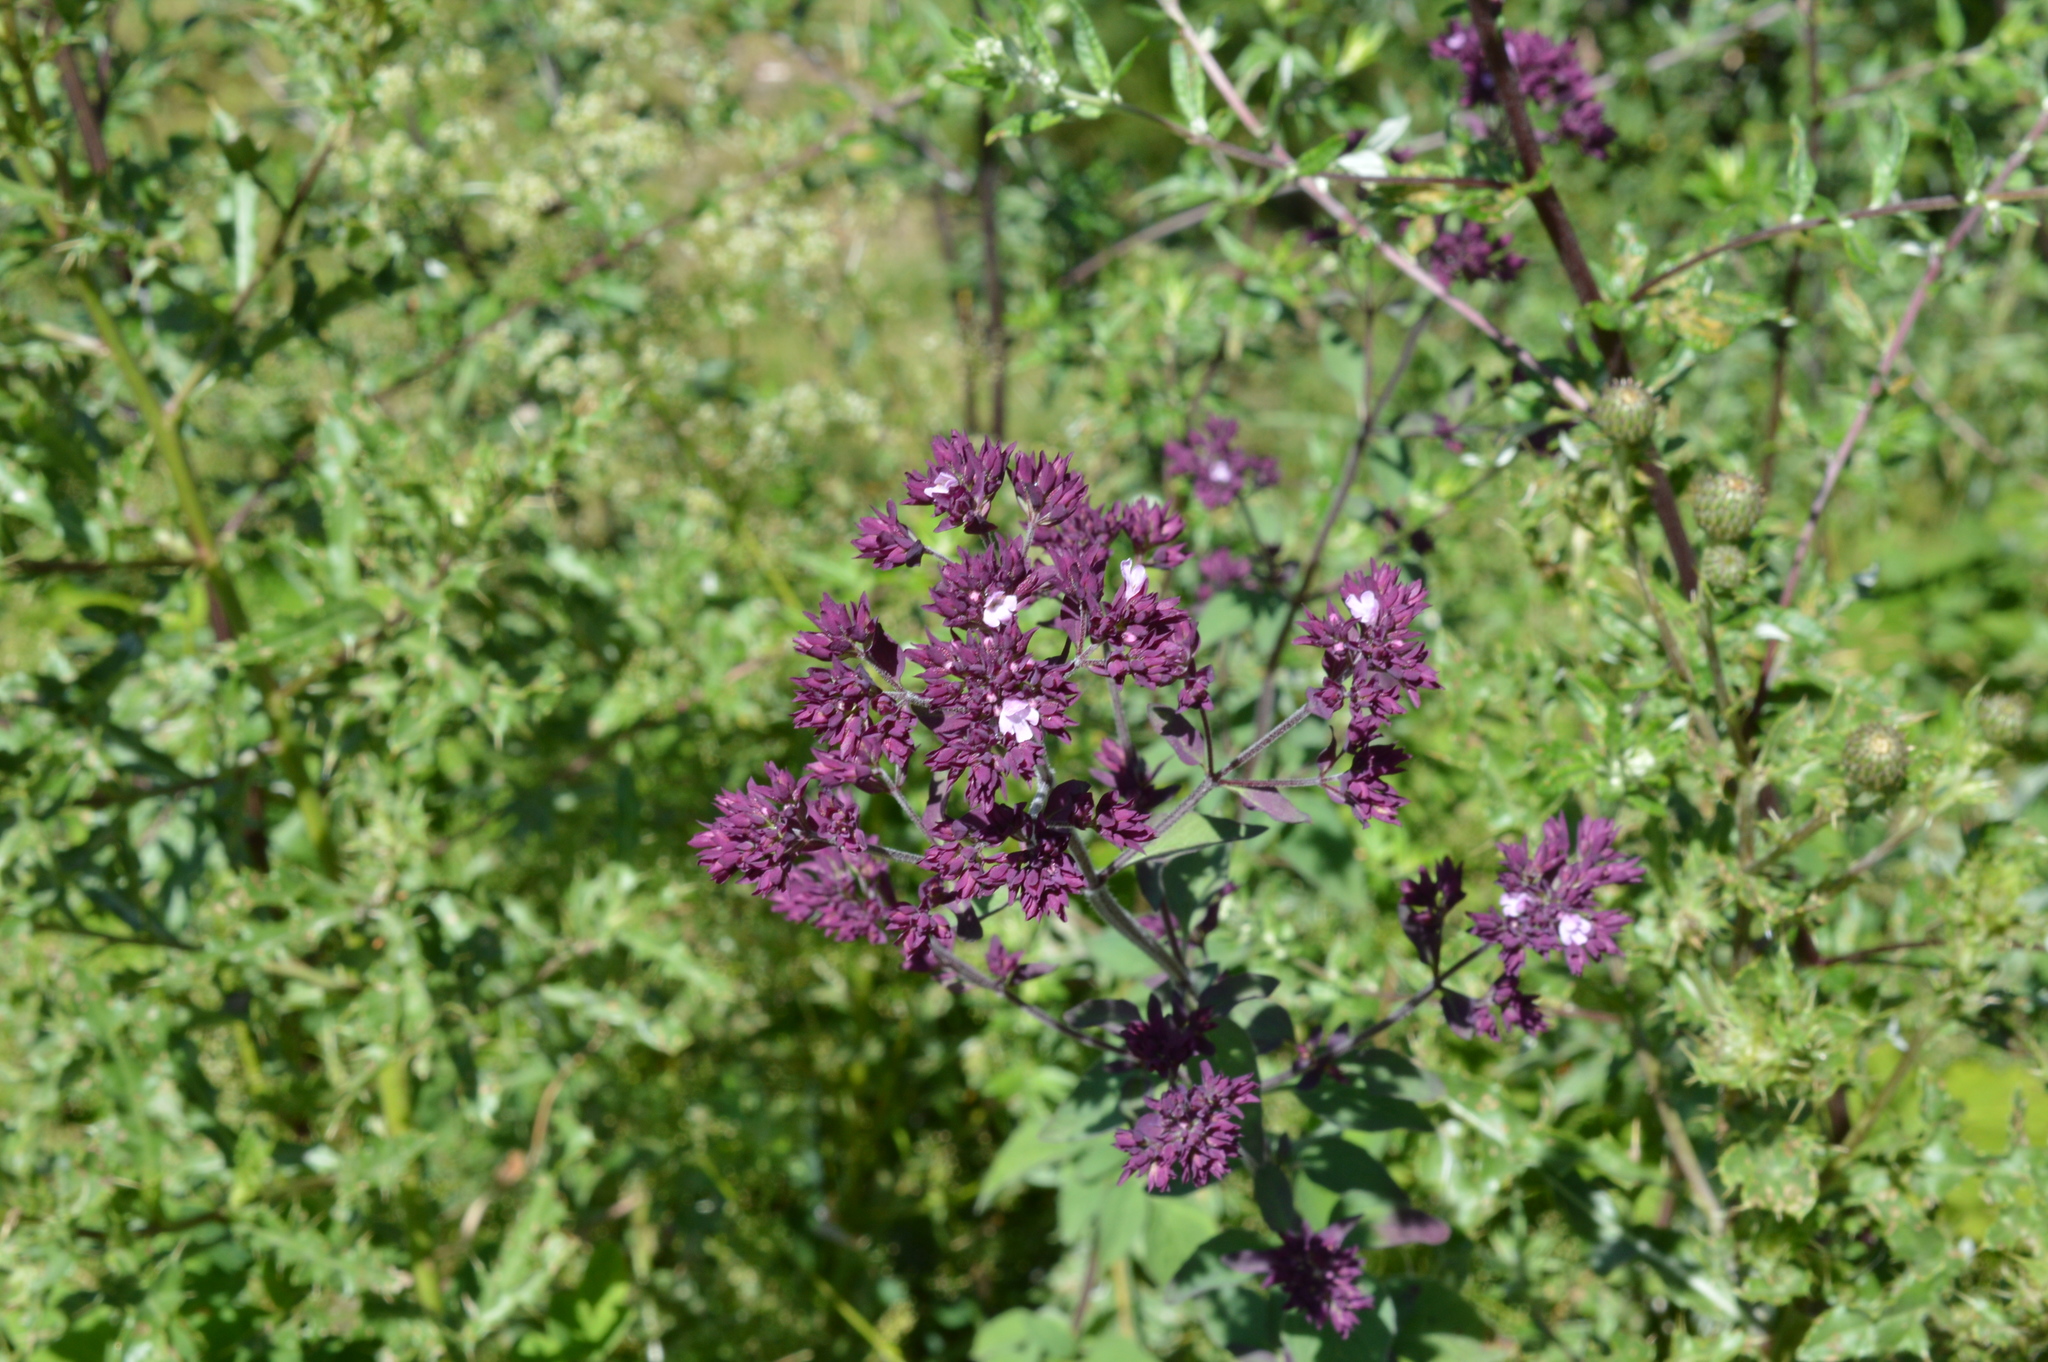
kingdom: Plantae
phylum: Tracheophyta
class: Magnoliopsida
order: Lamiales
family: Lamiaceae
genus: Origanum
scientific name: Origanum vulgare
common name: Wild marjoram
